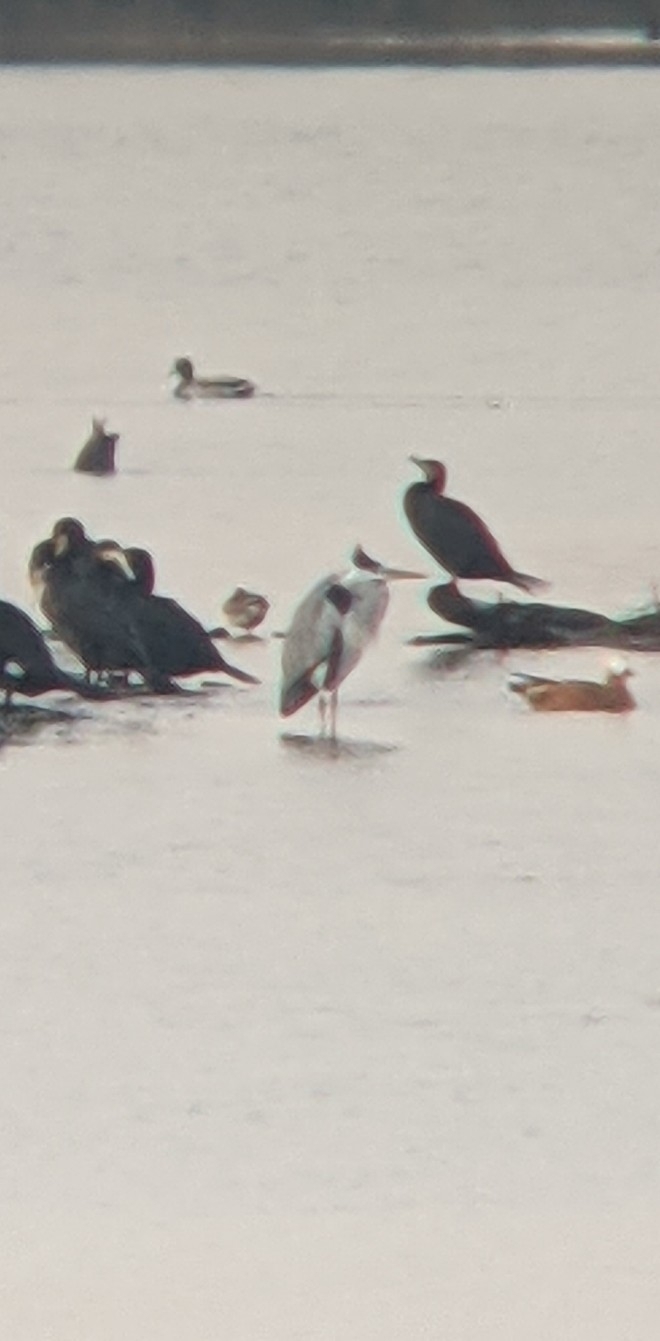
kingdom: Animalia
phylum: Chordata
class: Aves
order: Pelecaniformes
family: Ardeidae
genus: Ardea
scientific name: Ardea cinerea
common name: Grey heron
